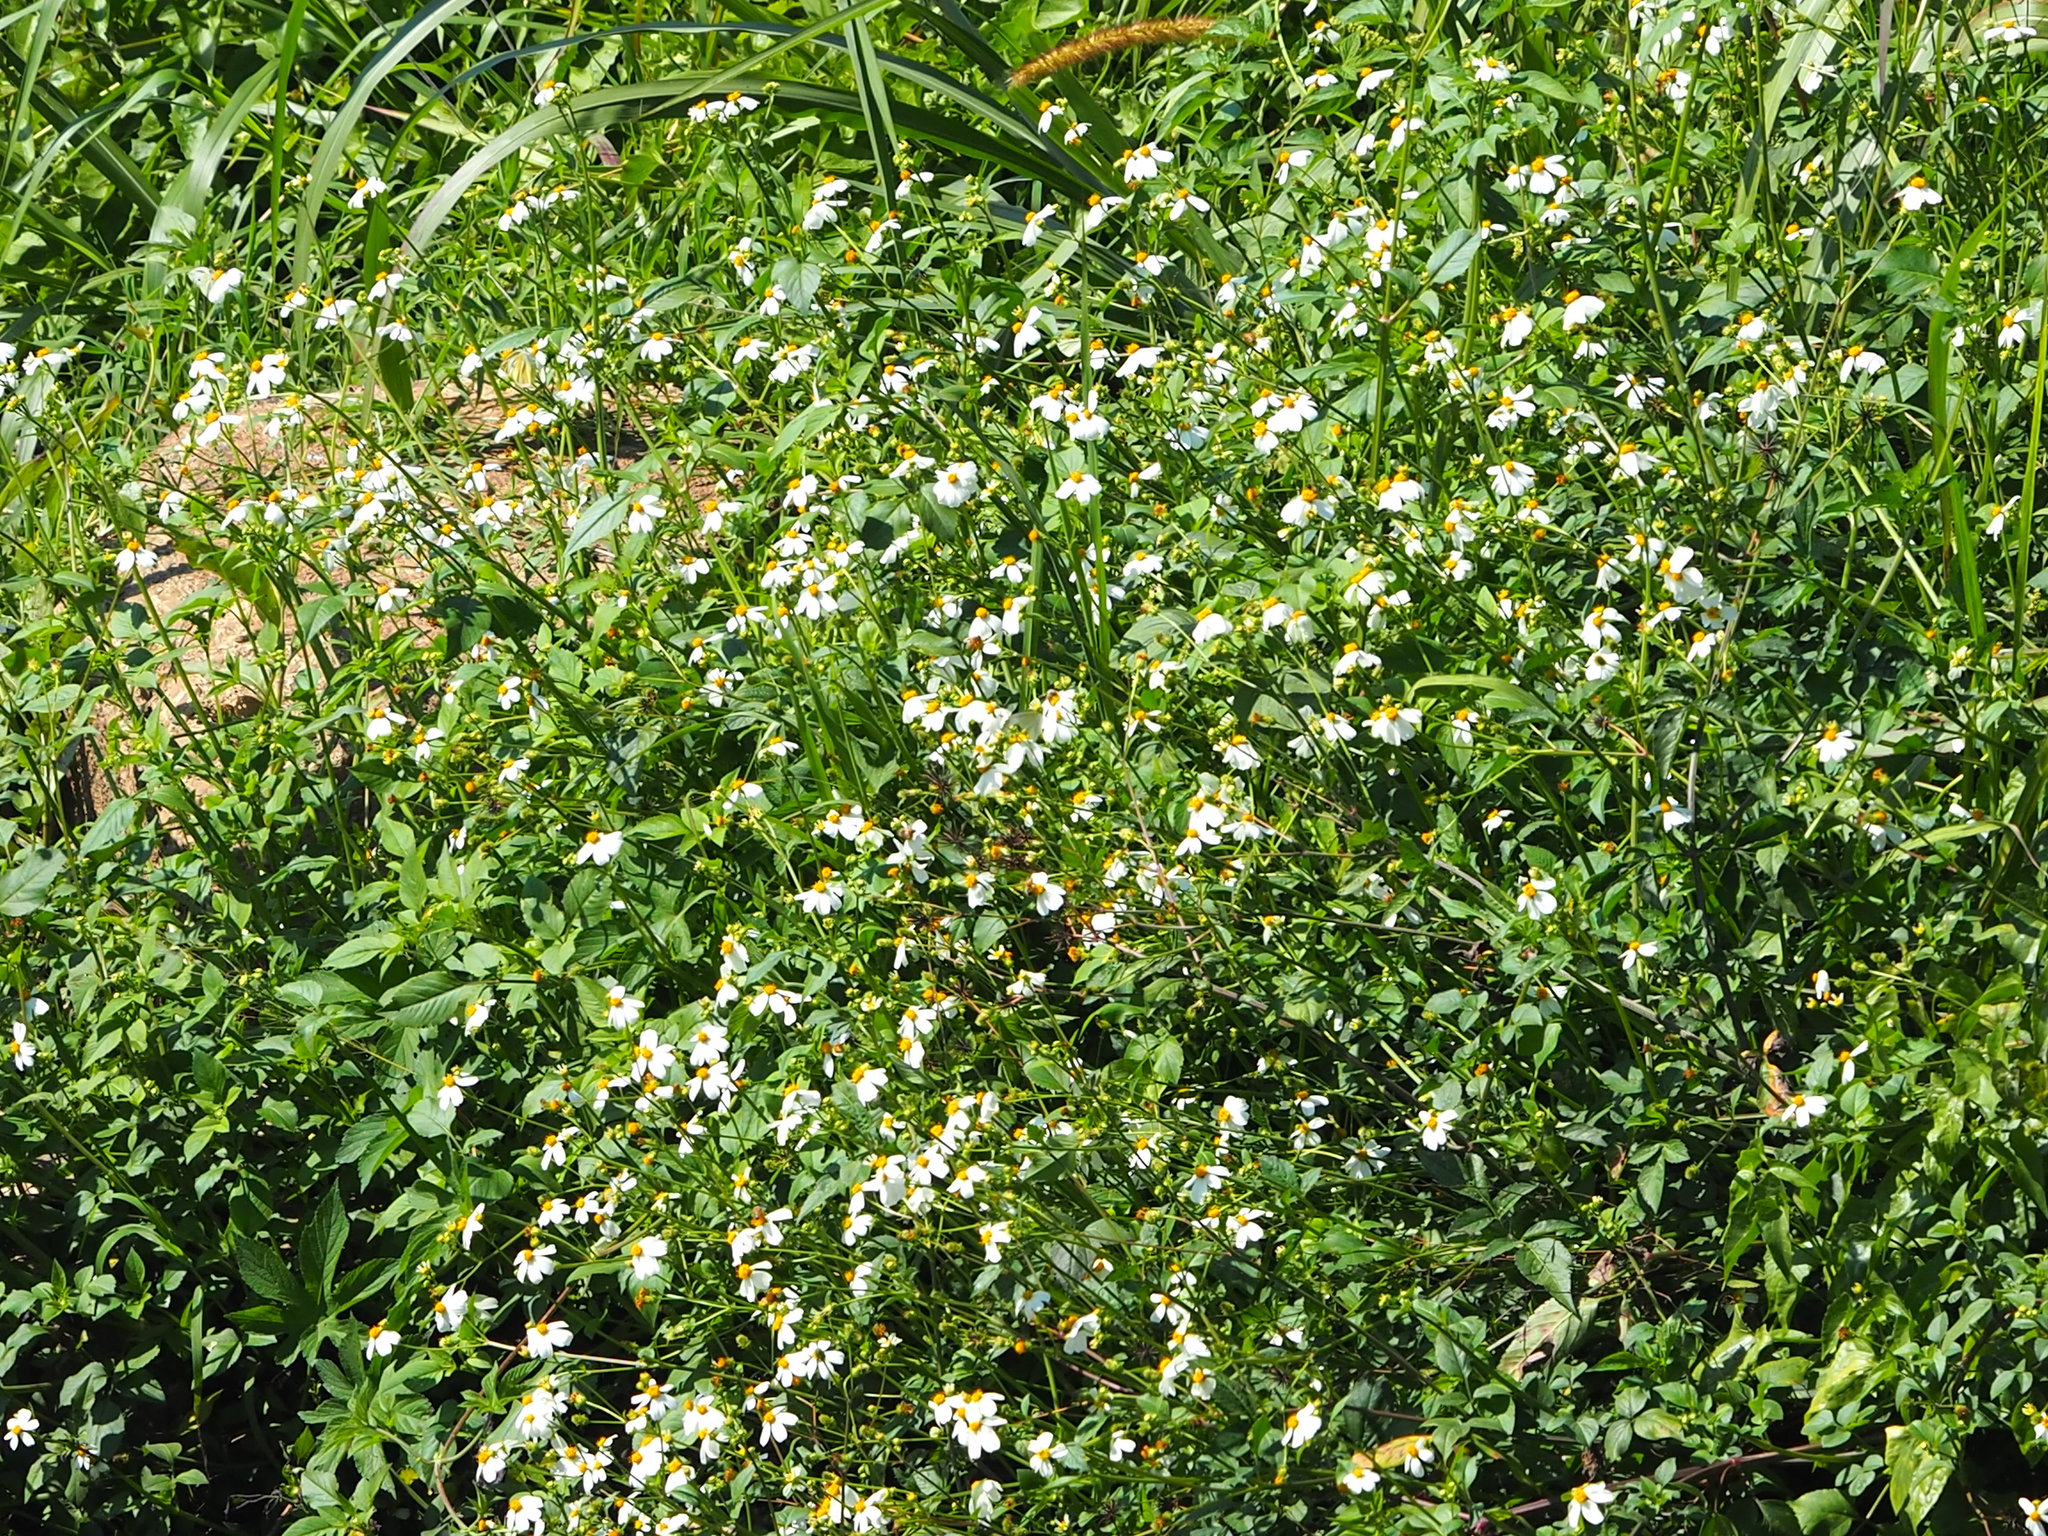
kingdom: Plantae
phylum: Tracheophyta
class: Magnoliopsida
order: Asterales
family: Asteraceae
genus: Bidens
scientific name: Bidens alba
